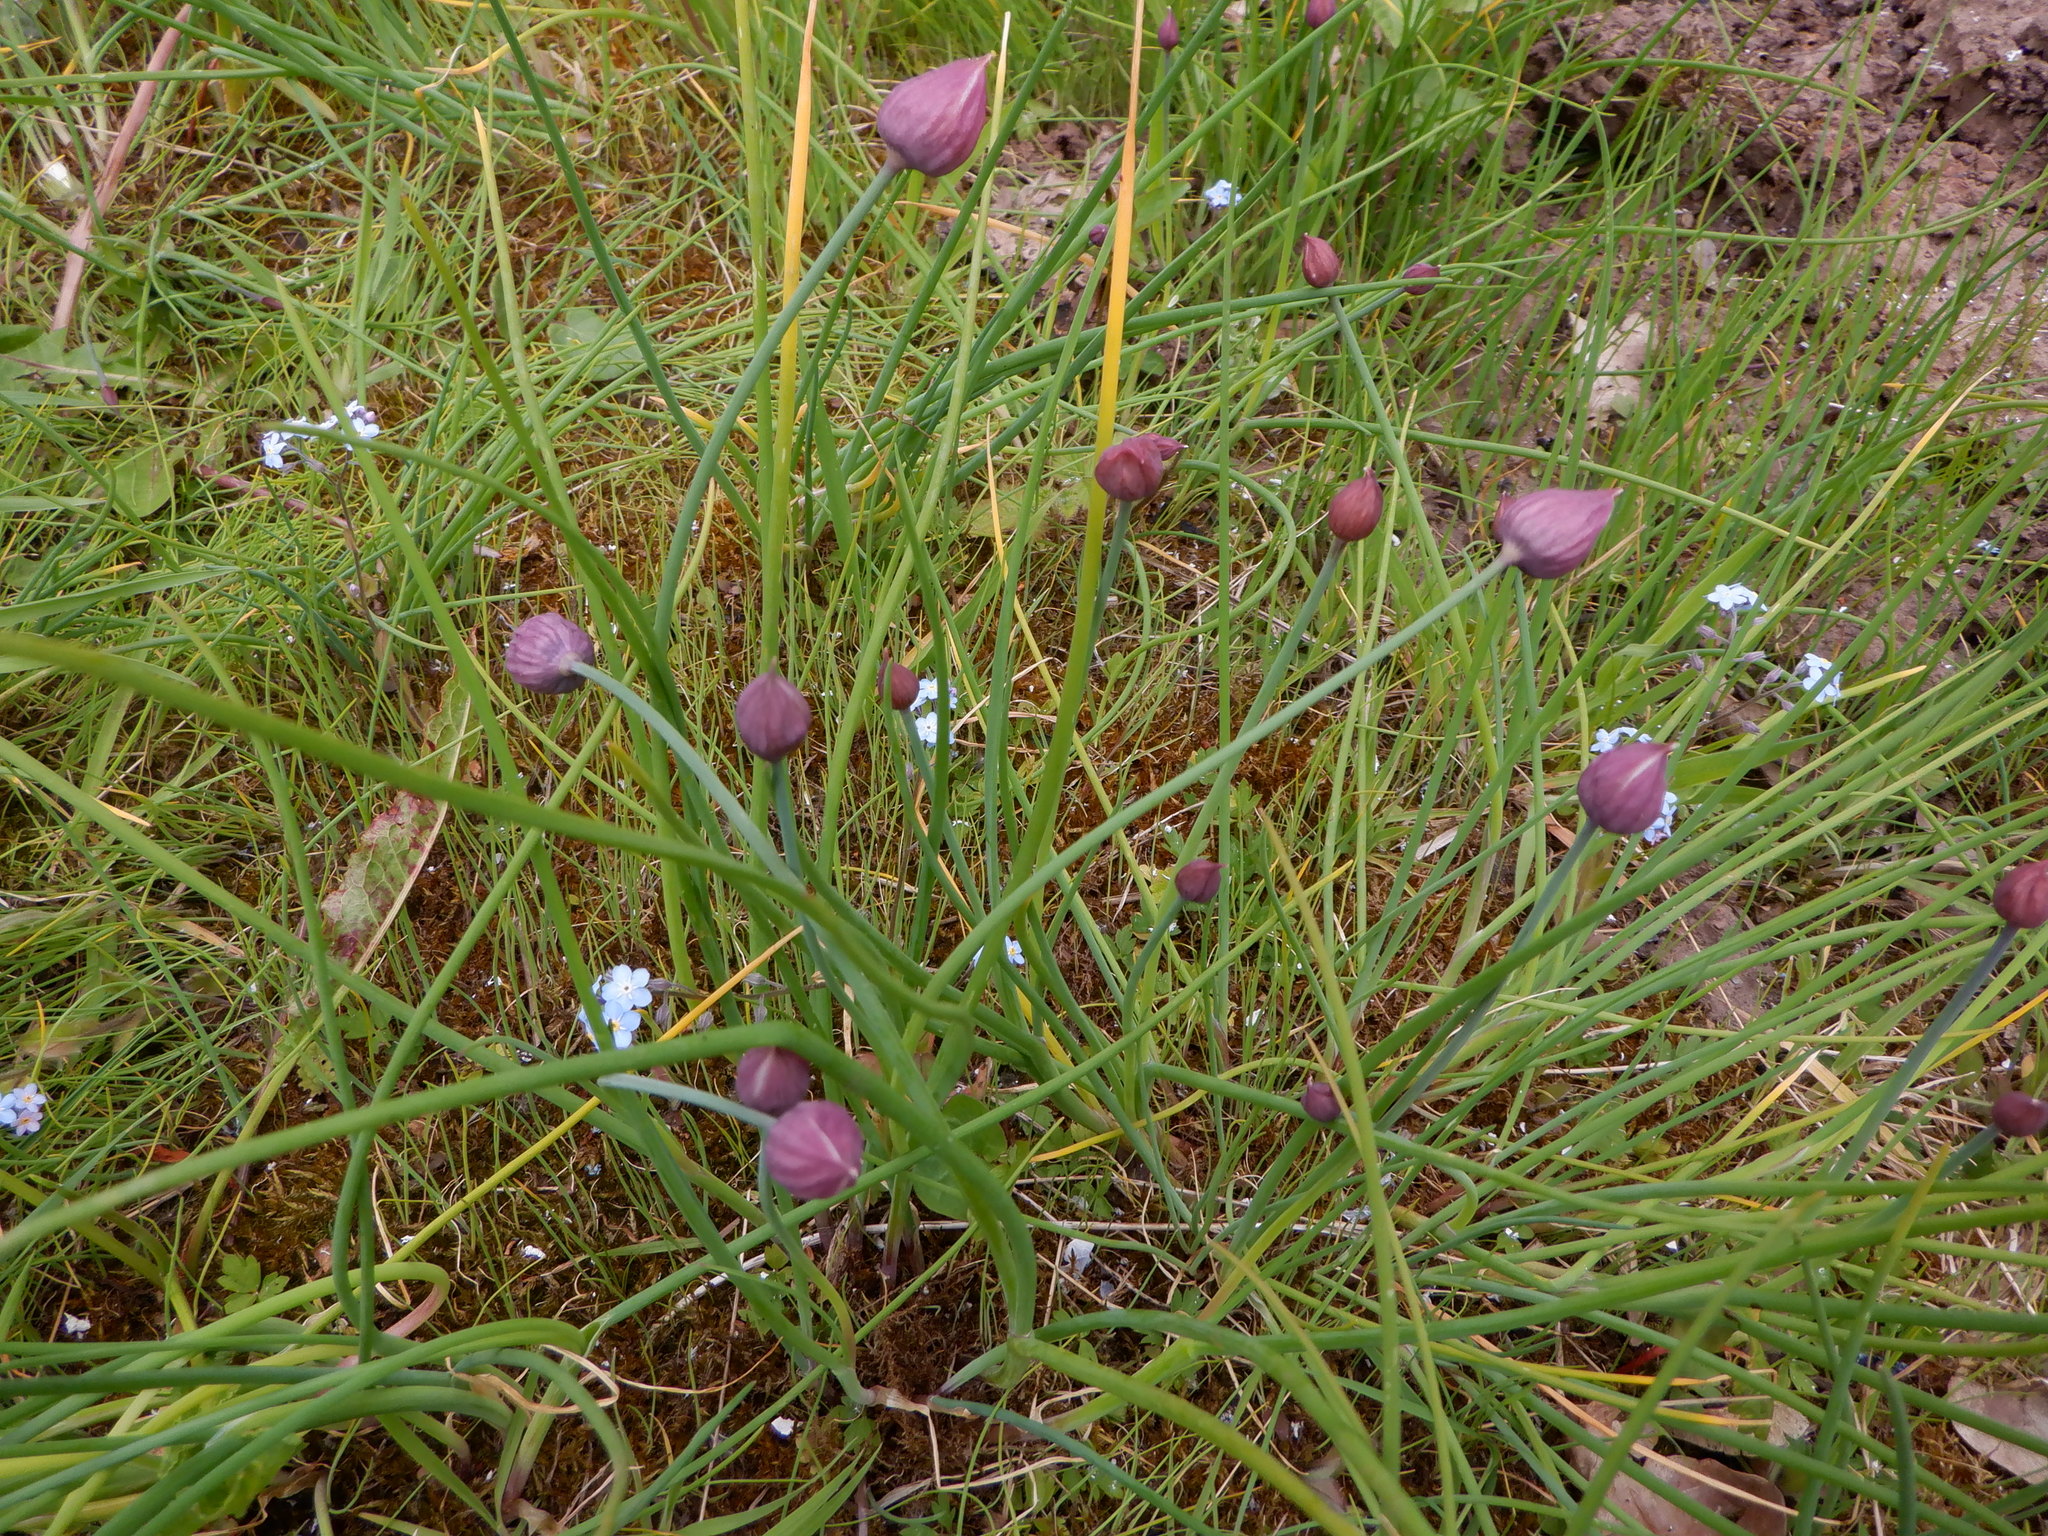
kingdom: Plantae
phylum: Tracheophyta
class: Liliopsida
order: Asparagales
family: Amaryllidaceae
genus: Allium
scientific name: Allium schoenoprasum
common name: Chives
